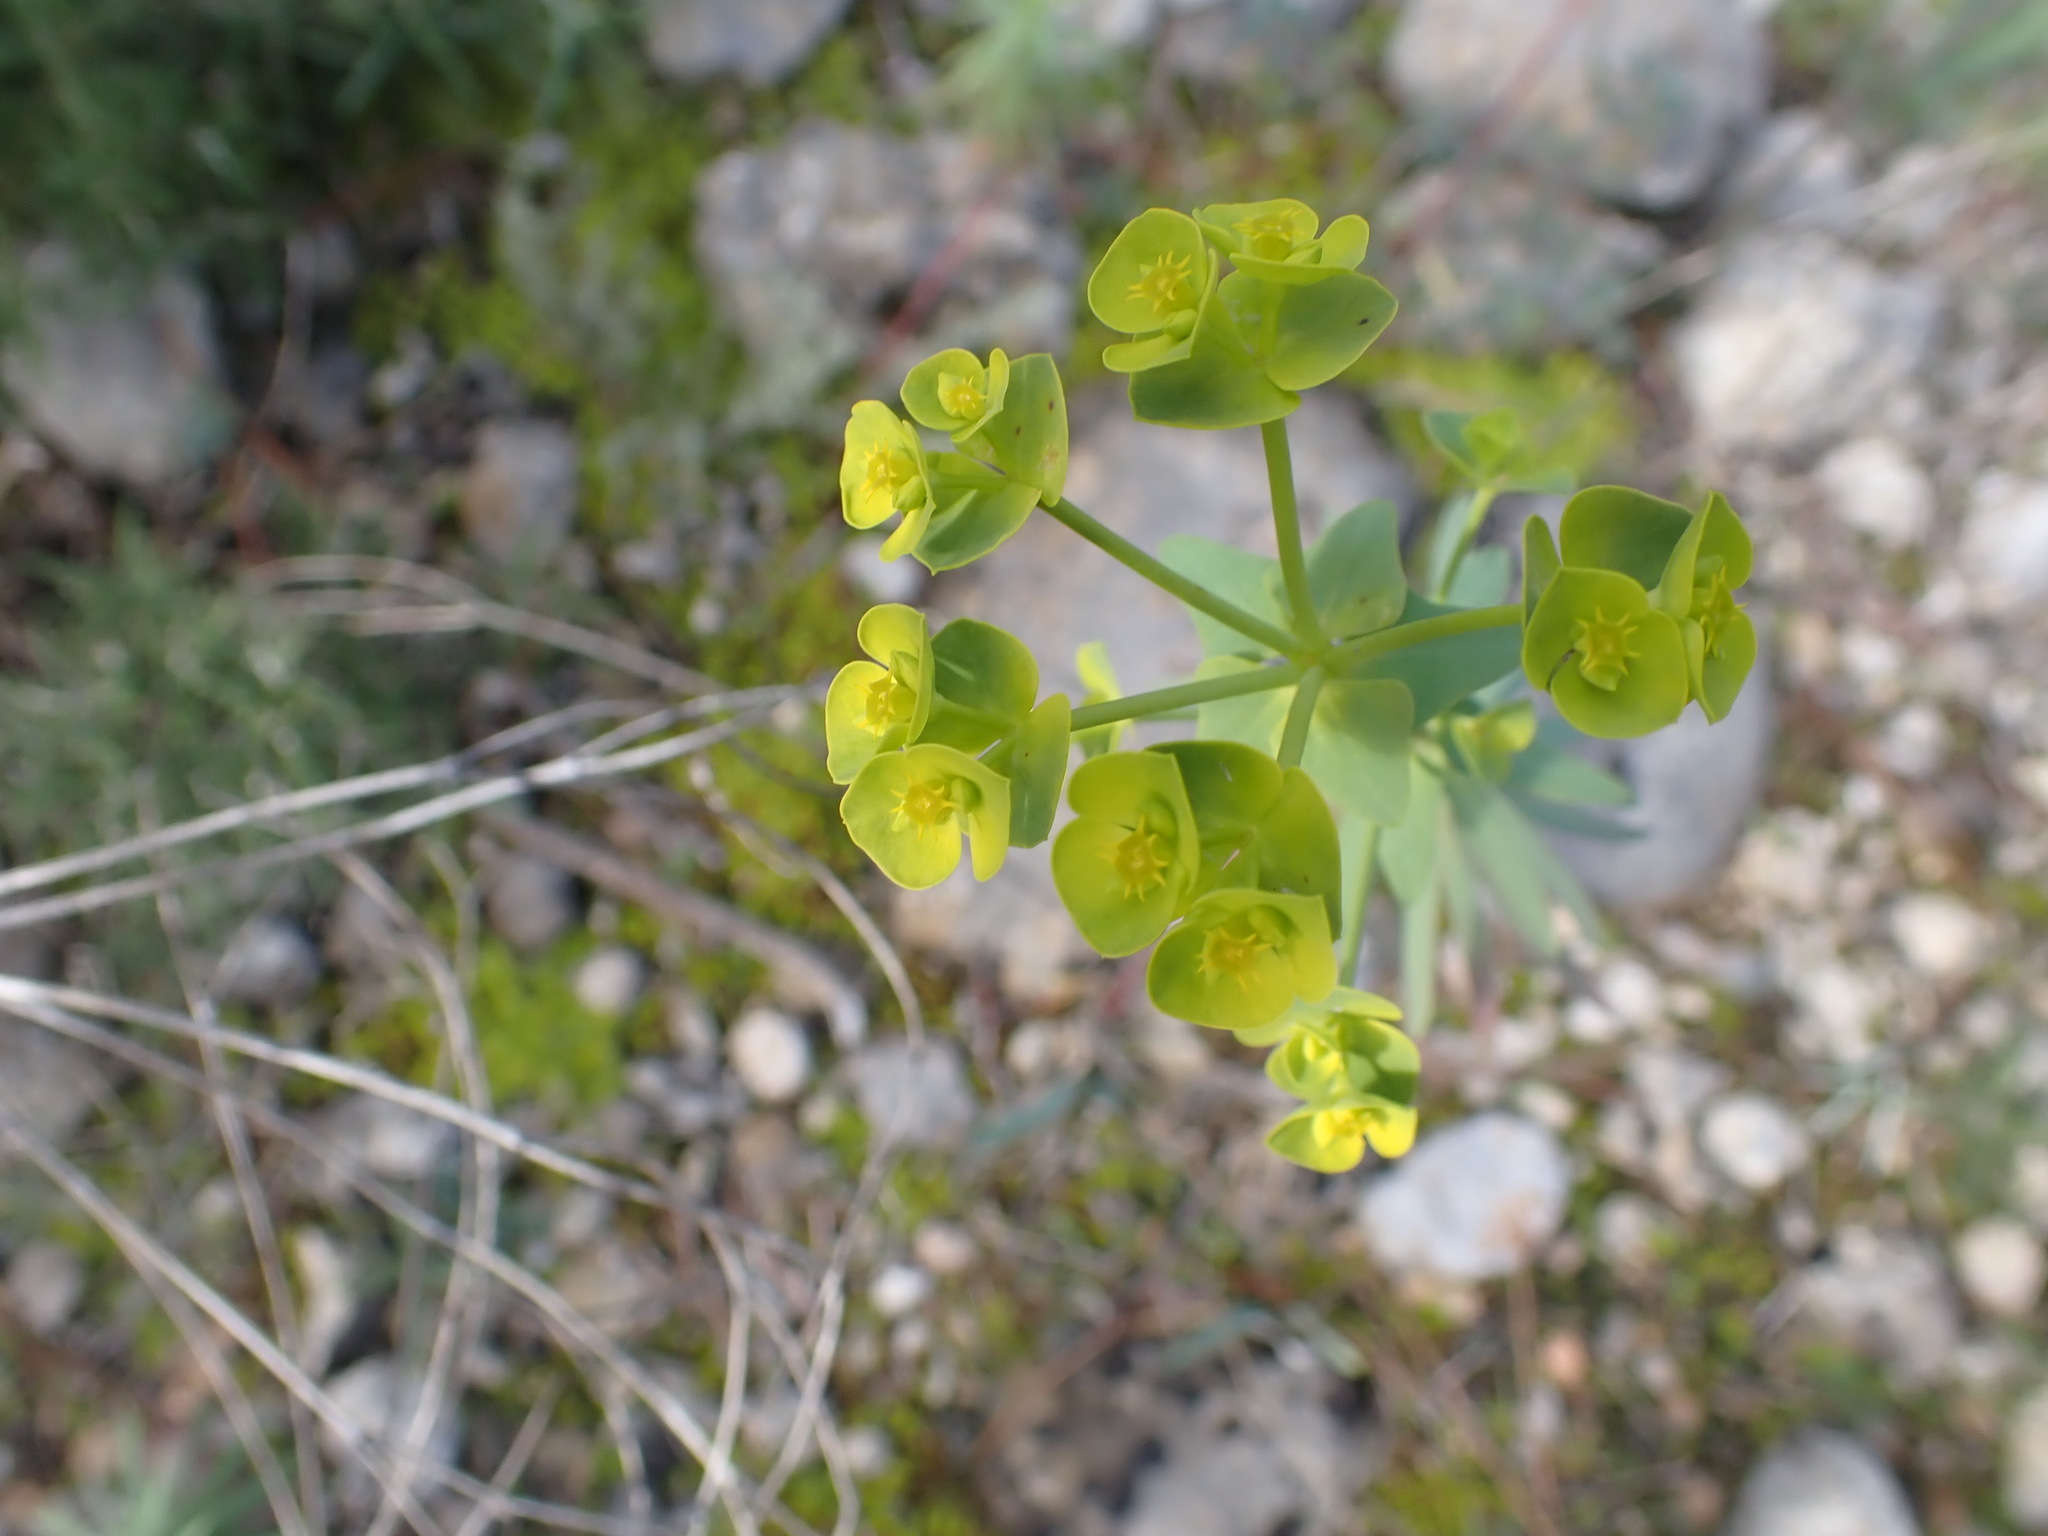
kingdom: Plantae
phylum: Tracheophyta
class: Magnoliopsida
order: Malpighiales
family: Euphorbiaceae
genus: Euphorbia
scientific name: Euphorbia segetalis
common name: Corn spurge
